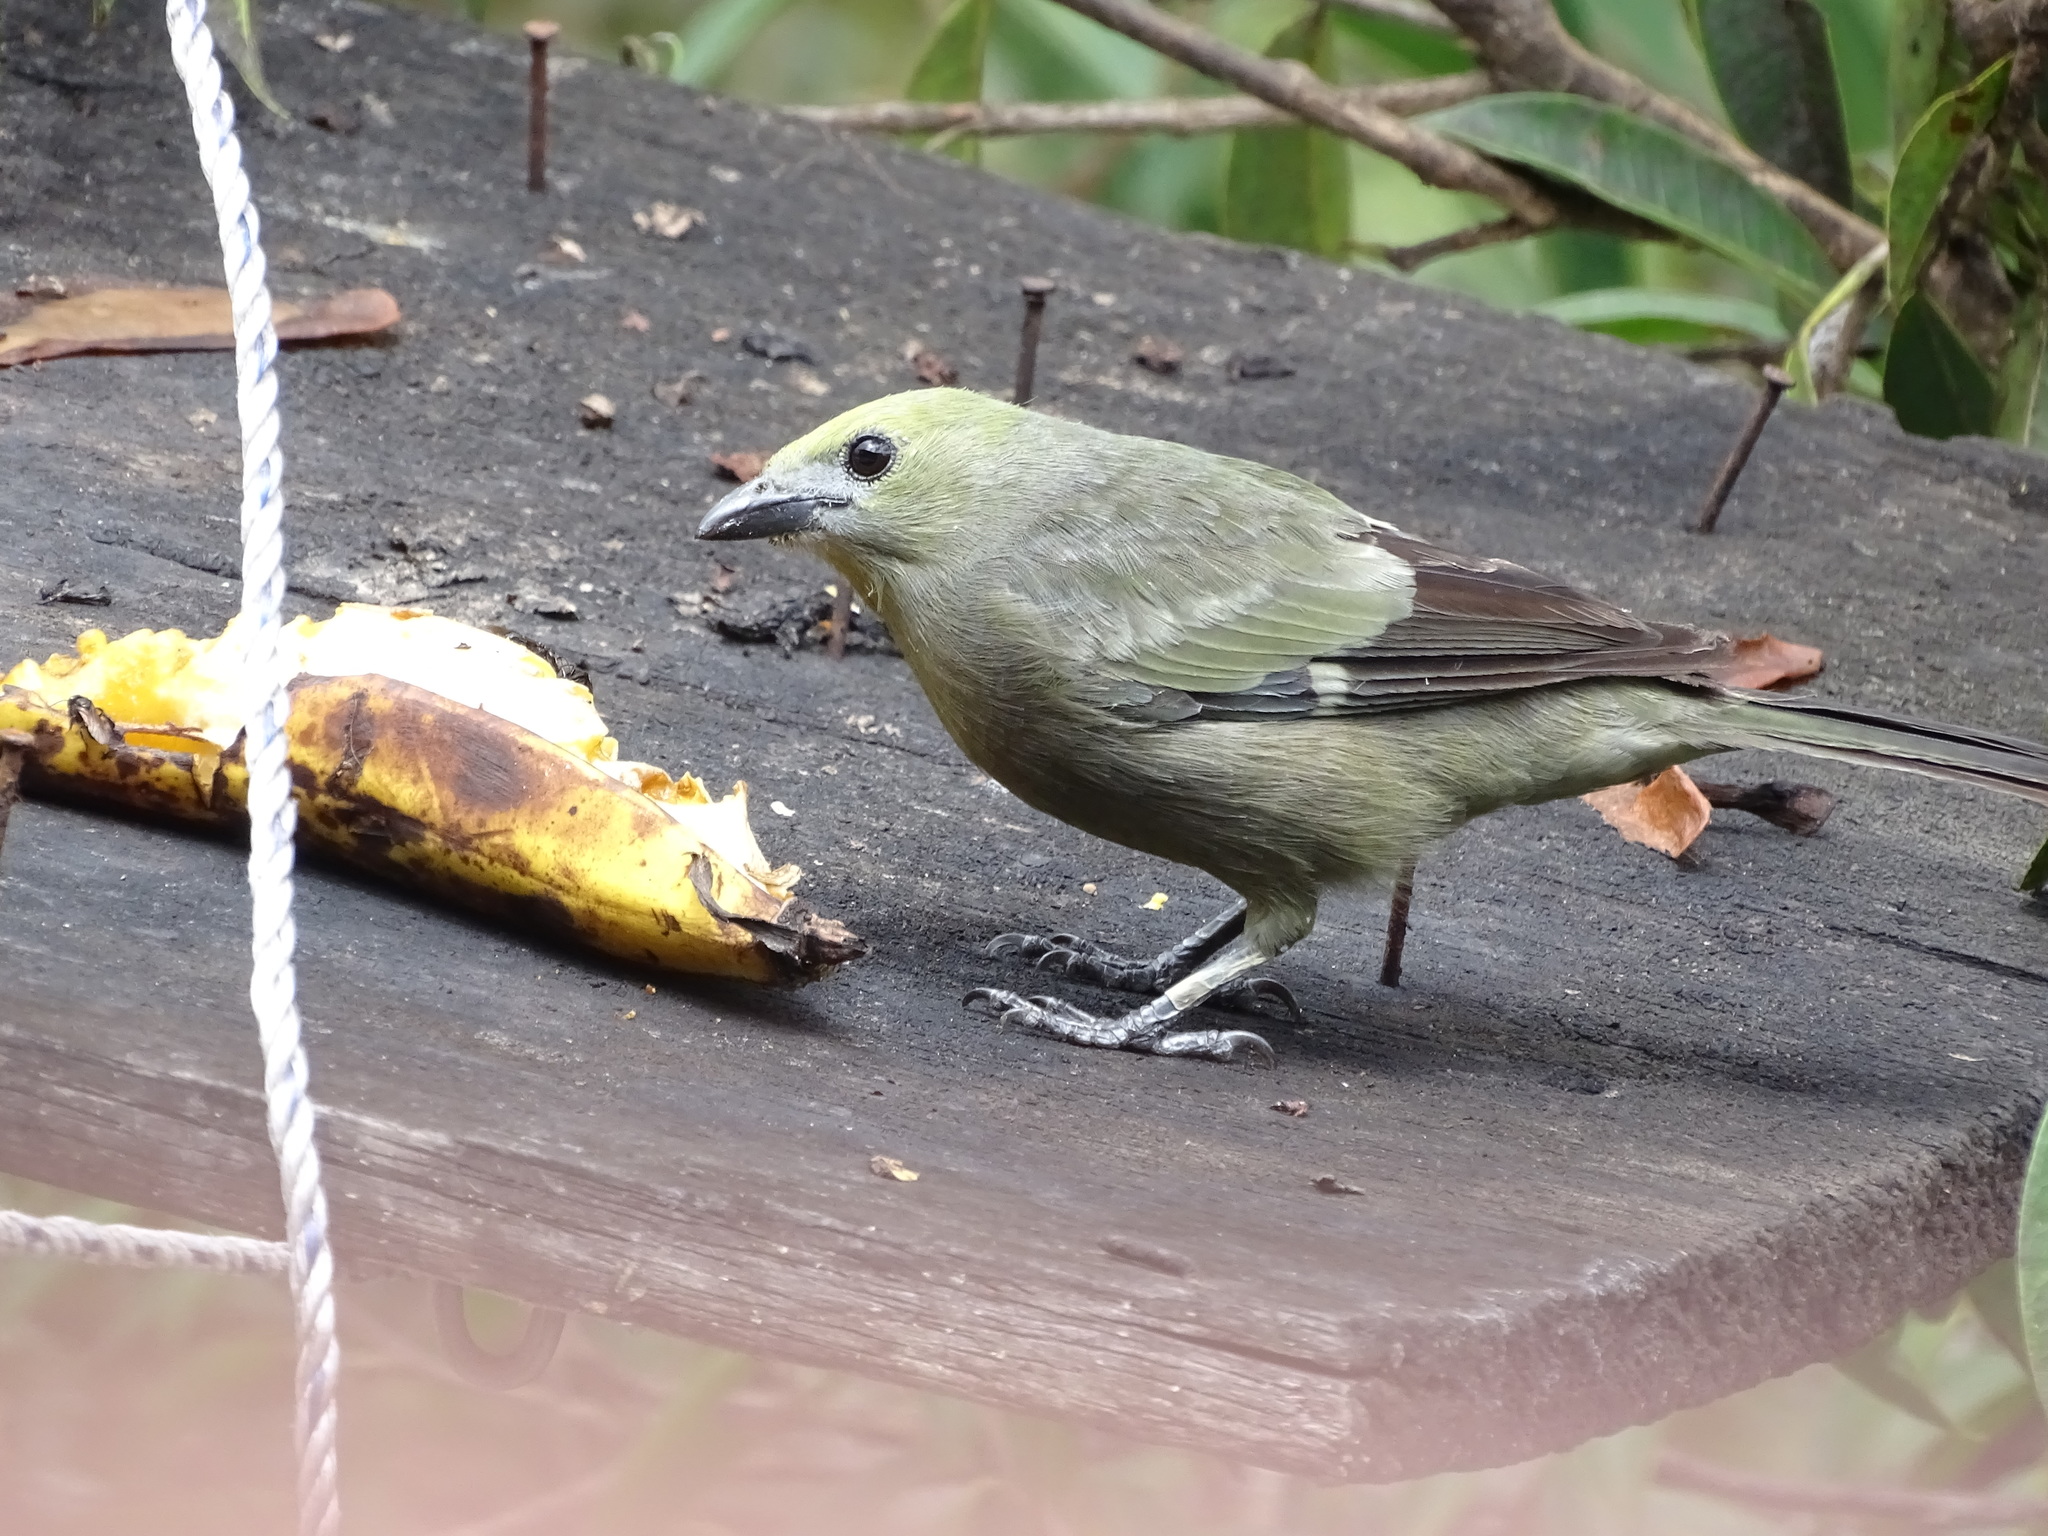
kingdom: Animalia
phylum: Chordata
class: Aves
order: Passeriformes
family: Thraupidae
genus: Thraupis
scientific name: Thraupis palmarum
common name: Palm tanager
